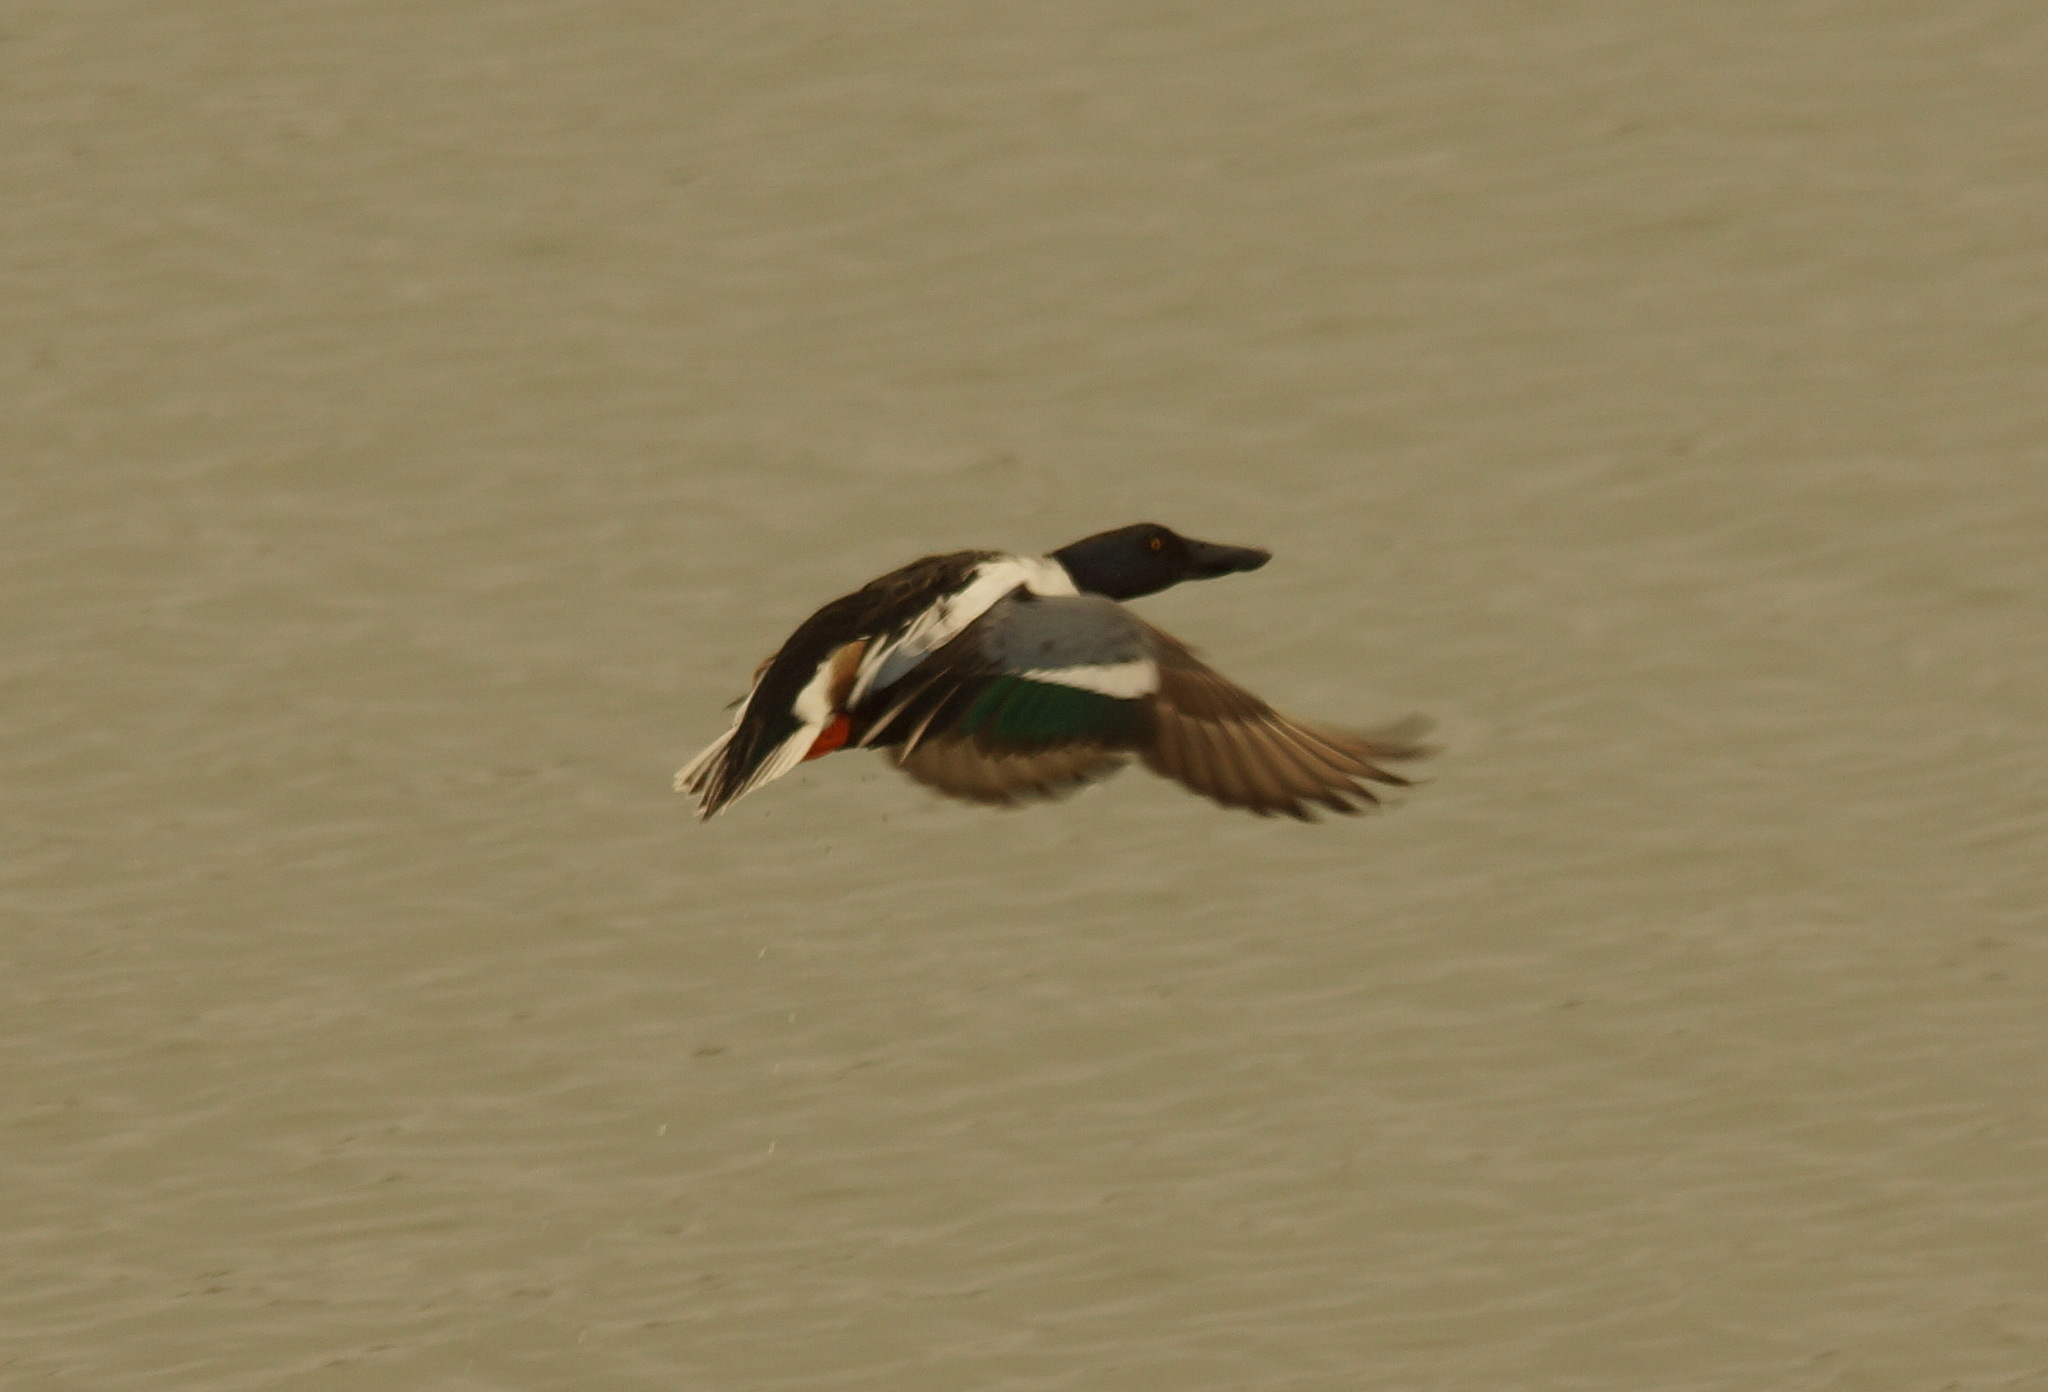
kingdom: Animalia
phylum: Chordata
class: Aves
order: Anseriformes
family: Anatidae
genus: Spatula
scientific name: Spatula clypeata
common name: Northern shoveler
